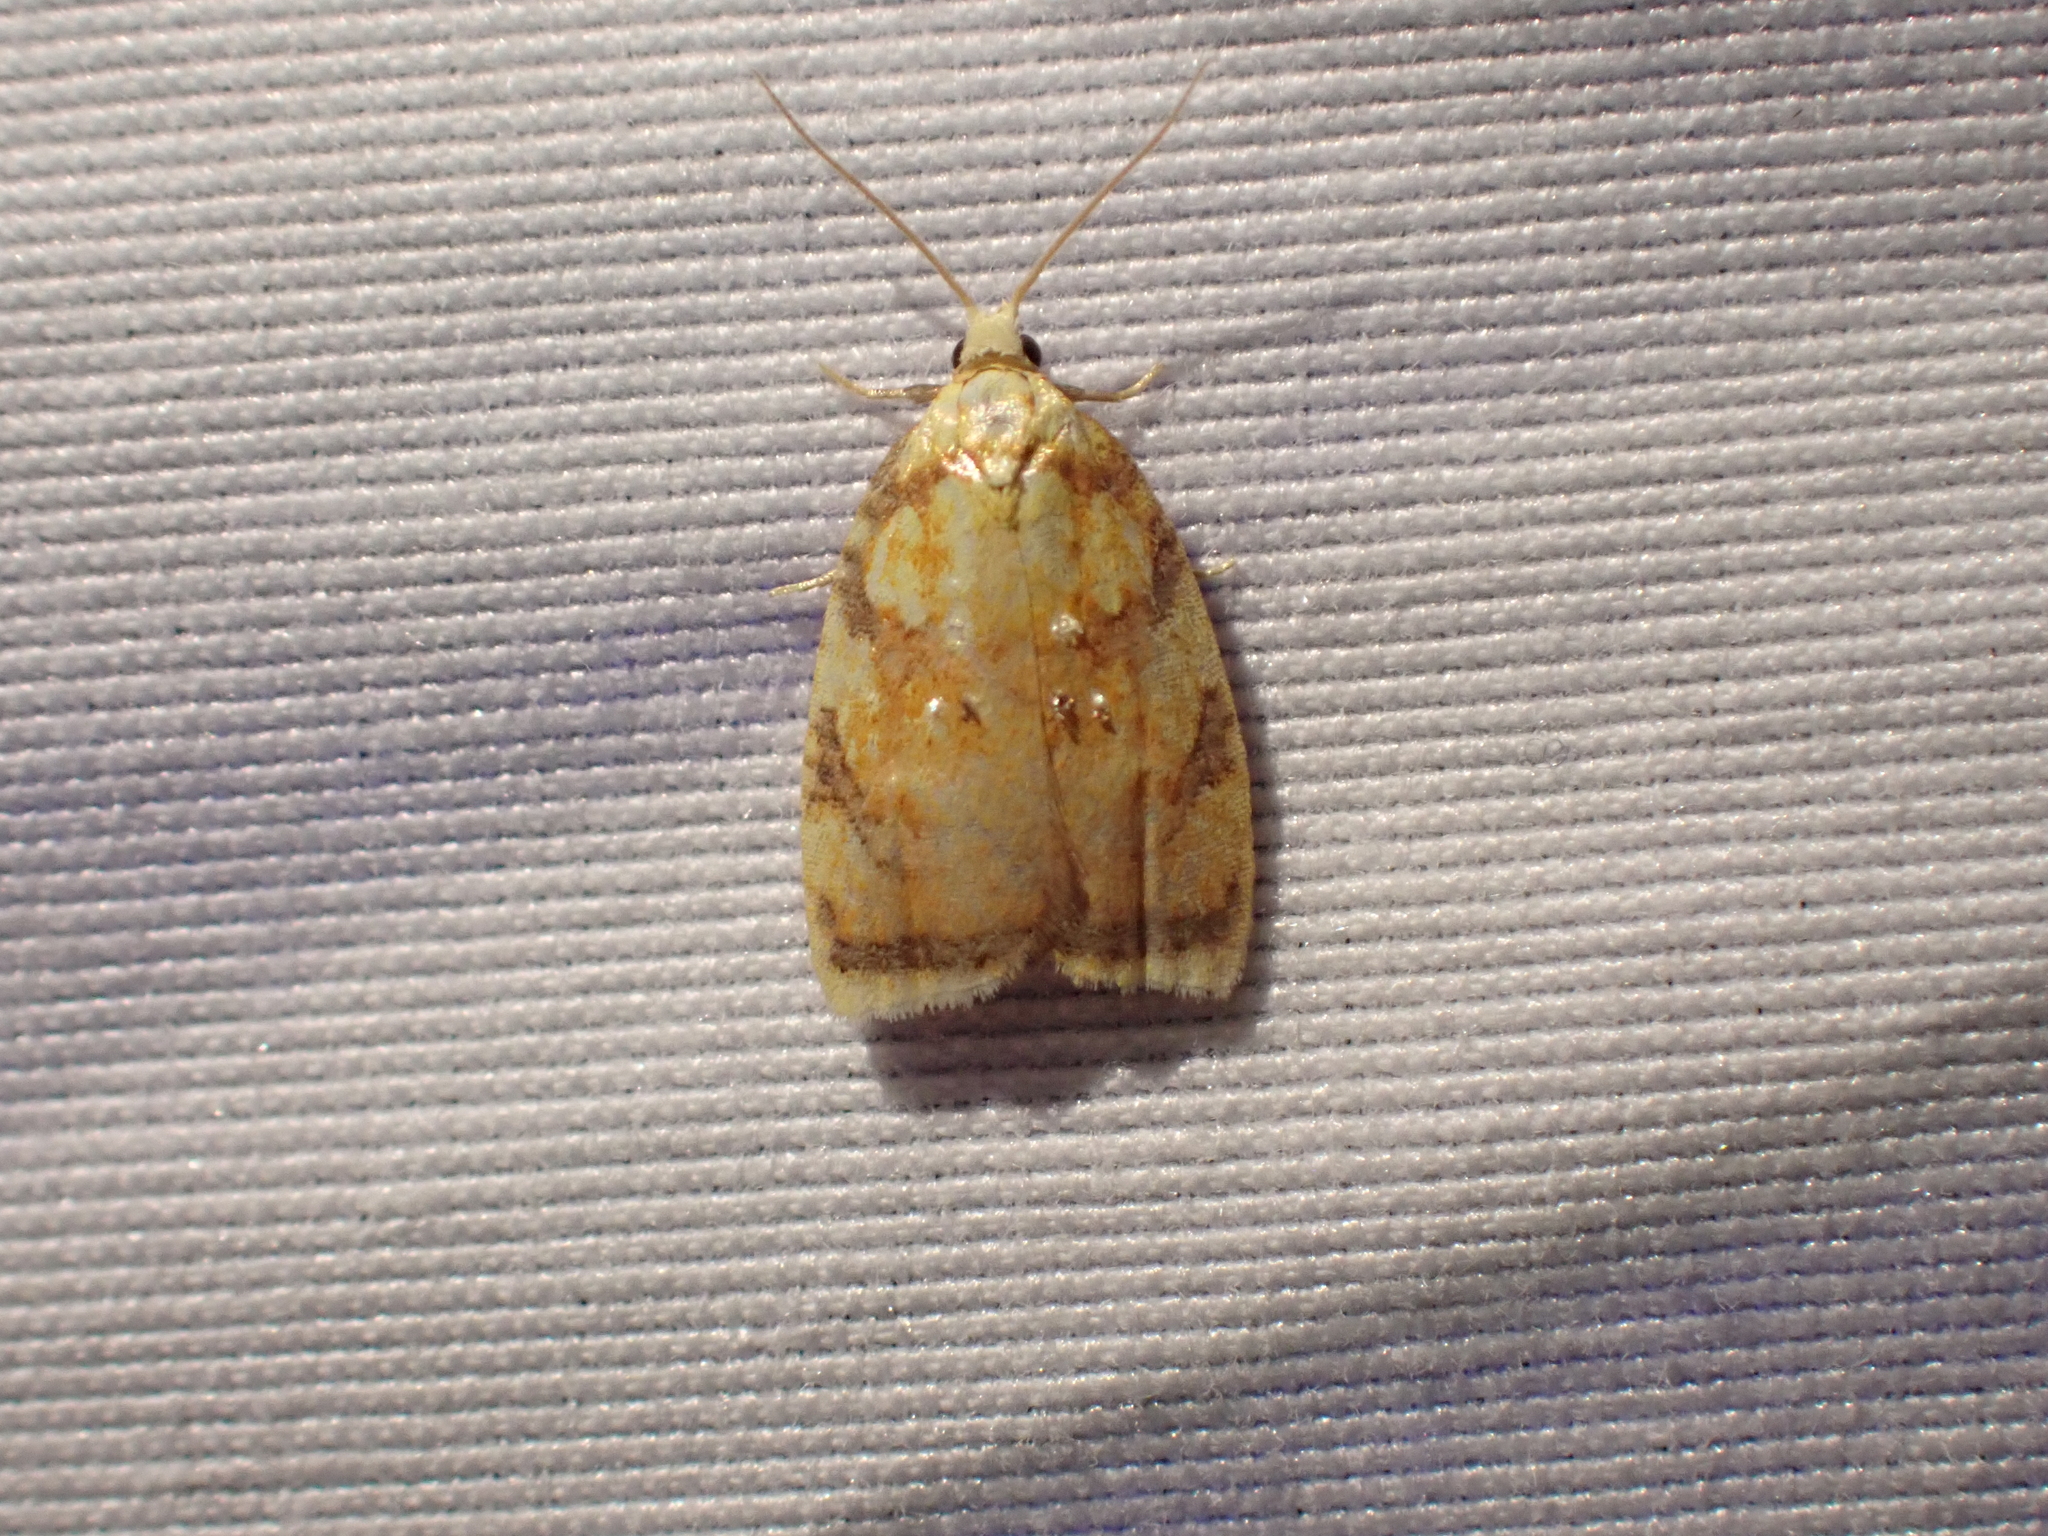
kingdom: Animalia
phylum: Arthropoda
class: Insecta
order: Lepidoptera
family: Tortricidae
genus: Acleris
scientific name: Acleris albicomana
